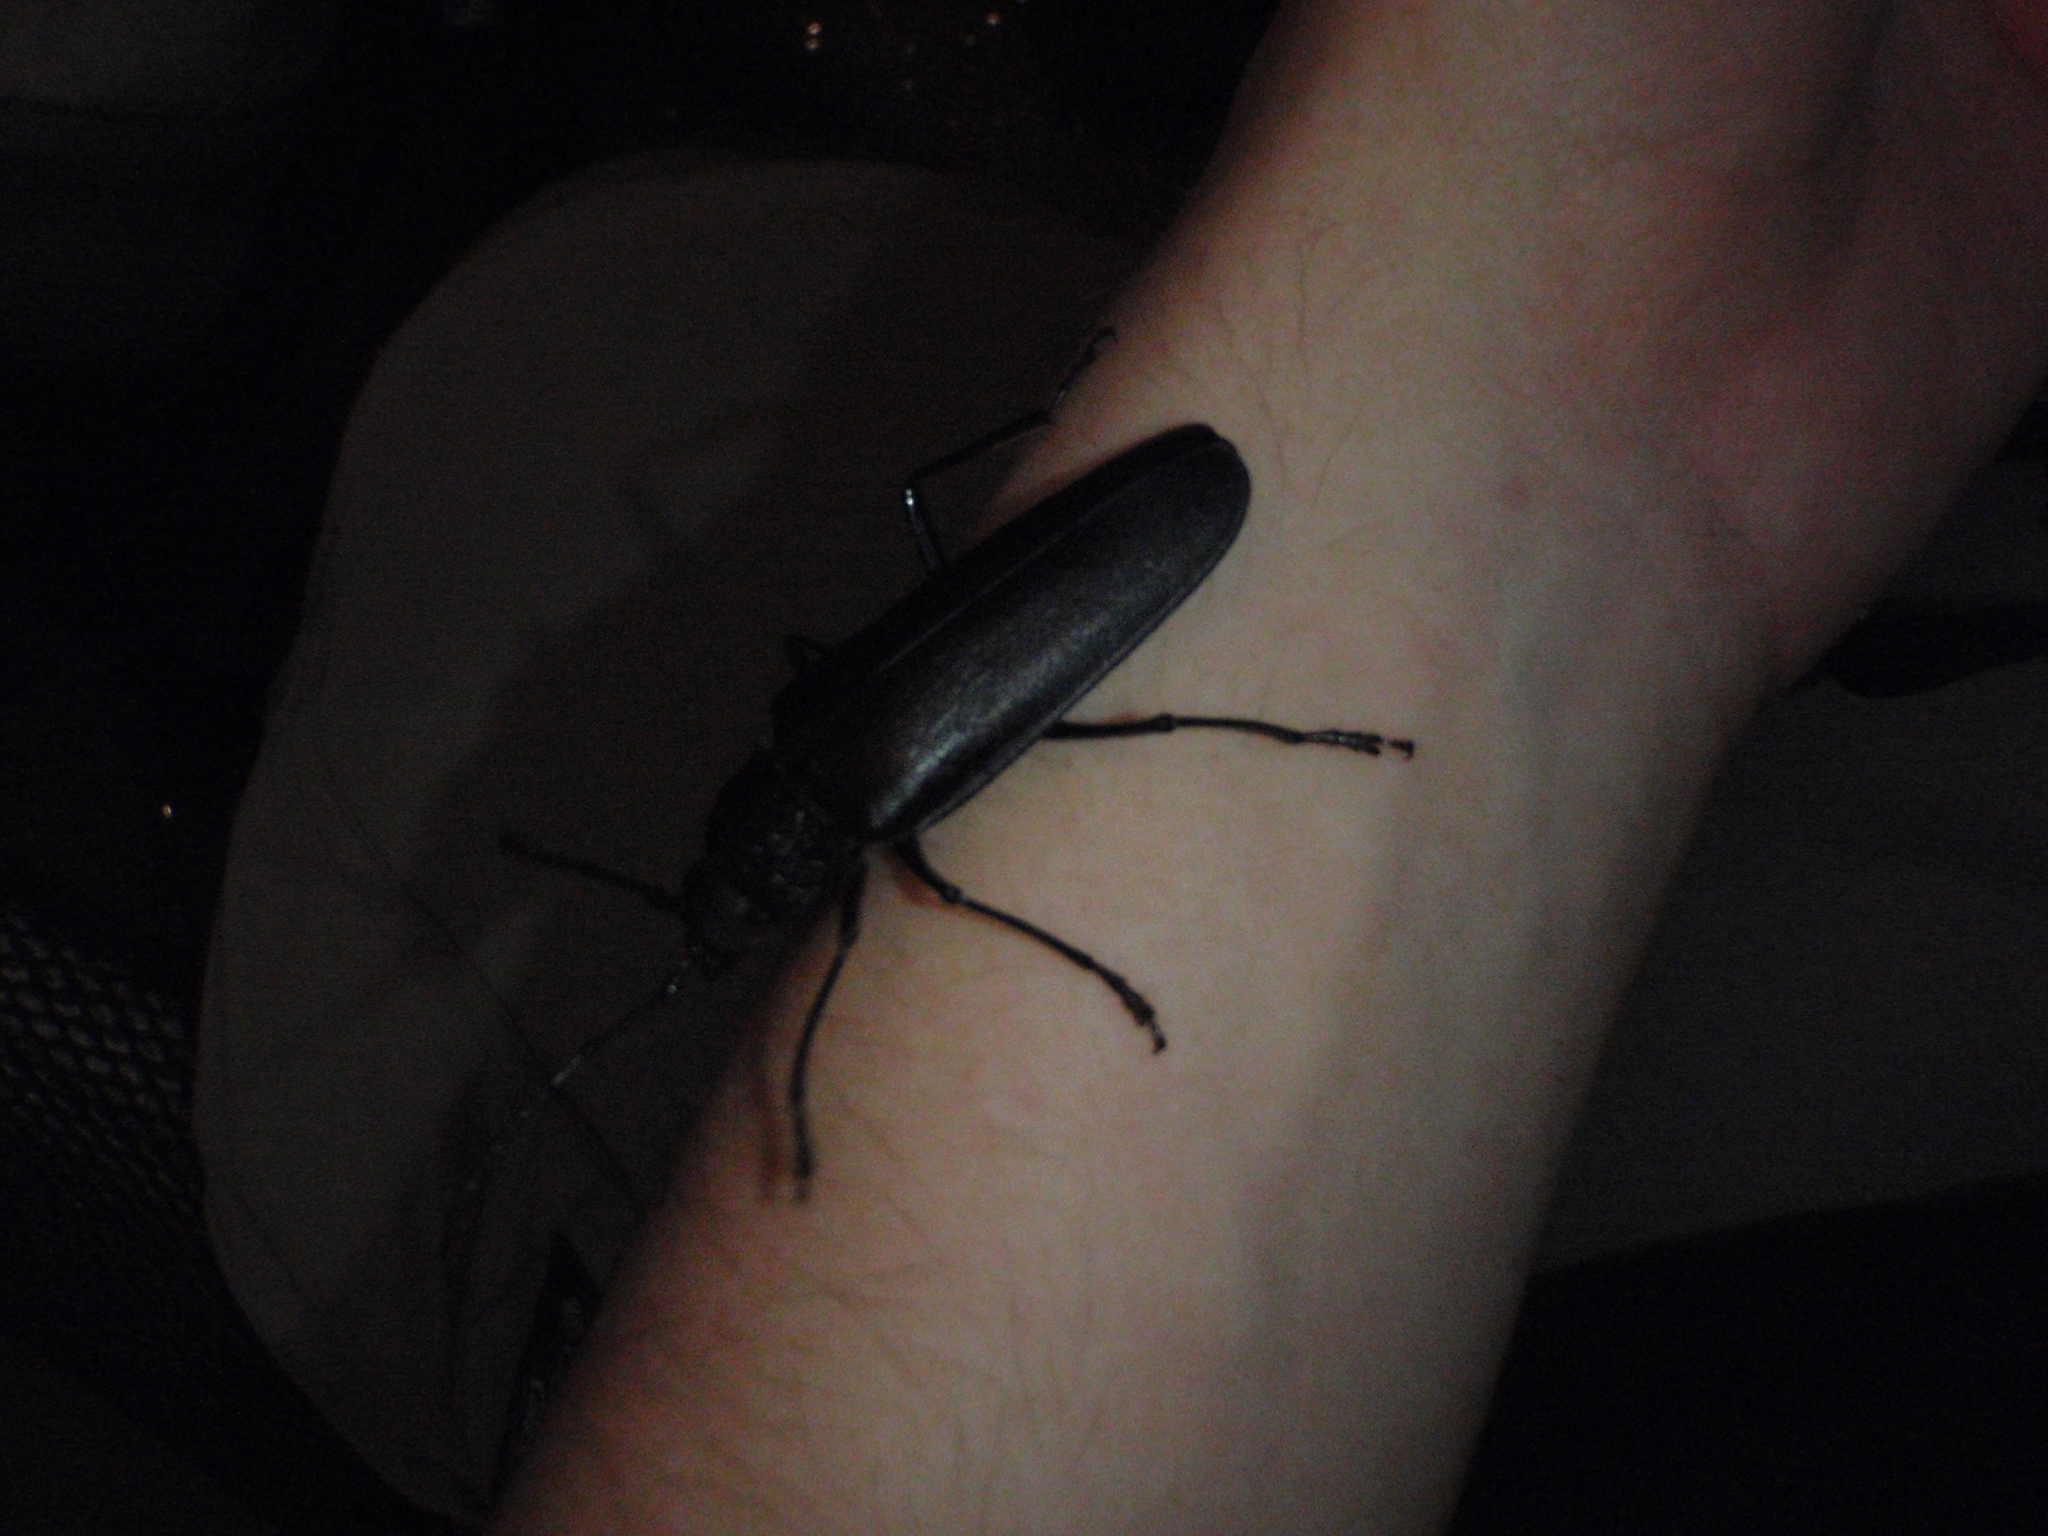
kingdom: Animalia
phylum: Arthropoda
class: Insecta
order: Coleoptera
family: Cerambycidae
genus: Ergates
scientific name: Ergates faber
